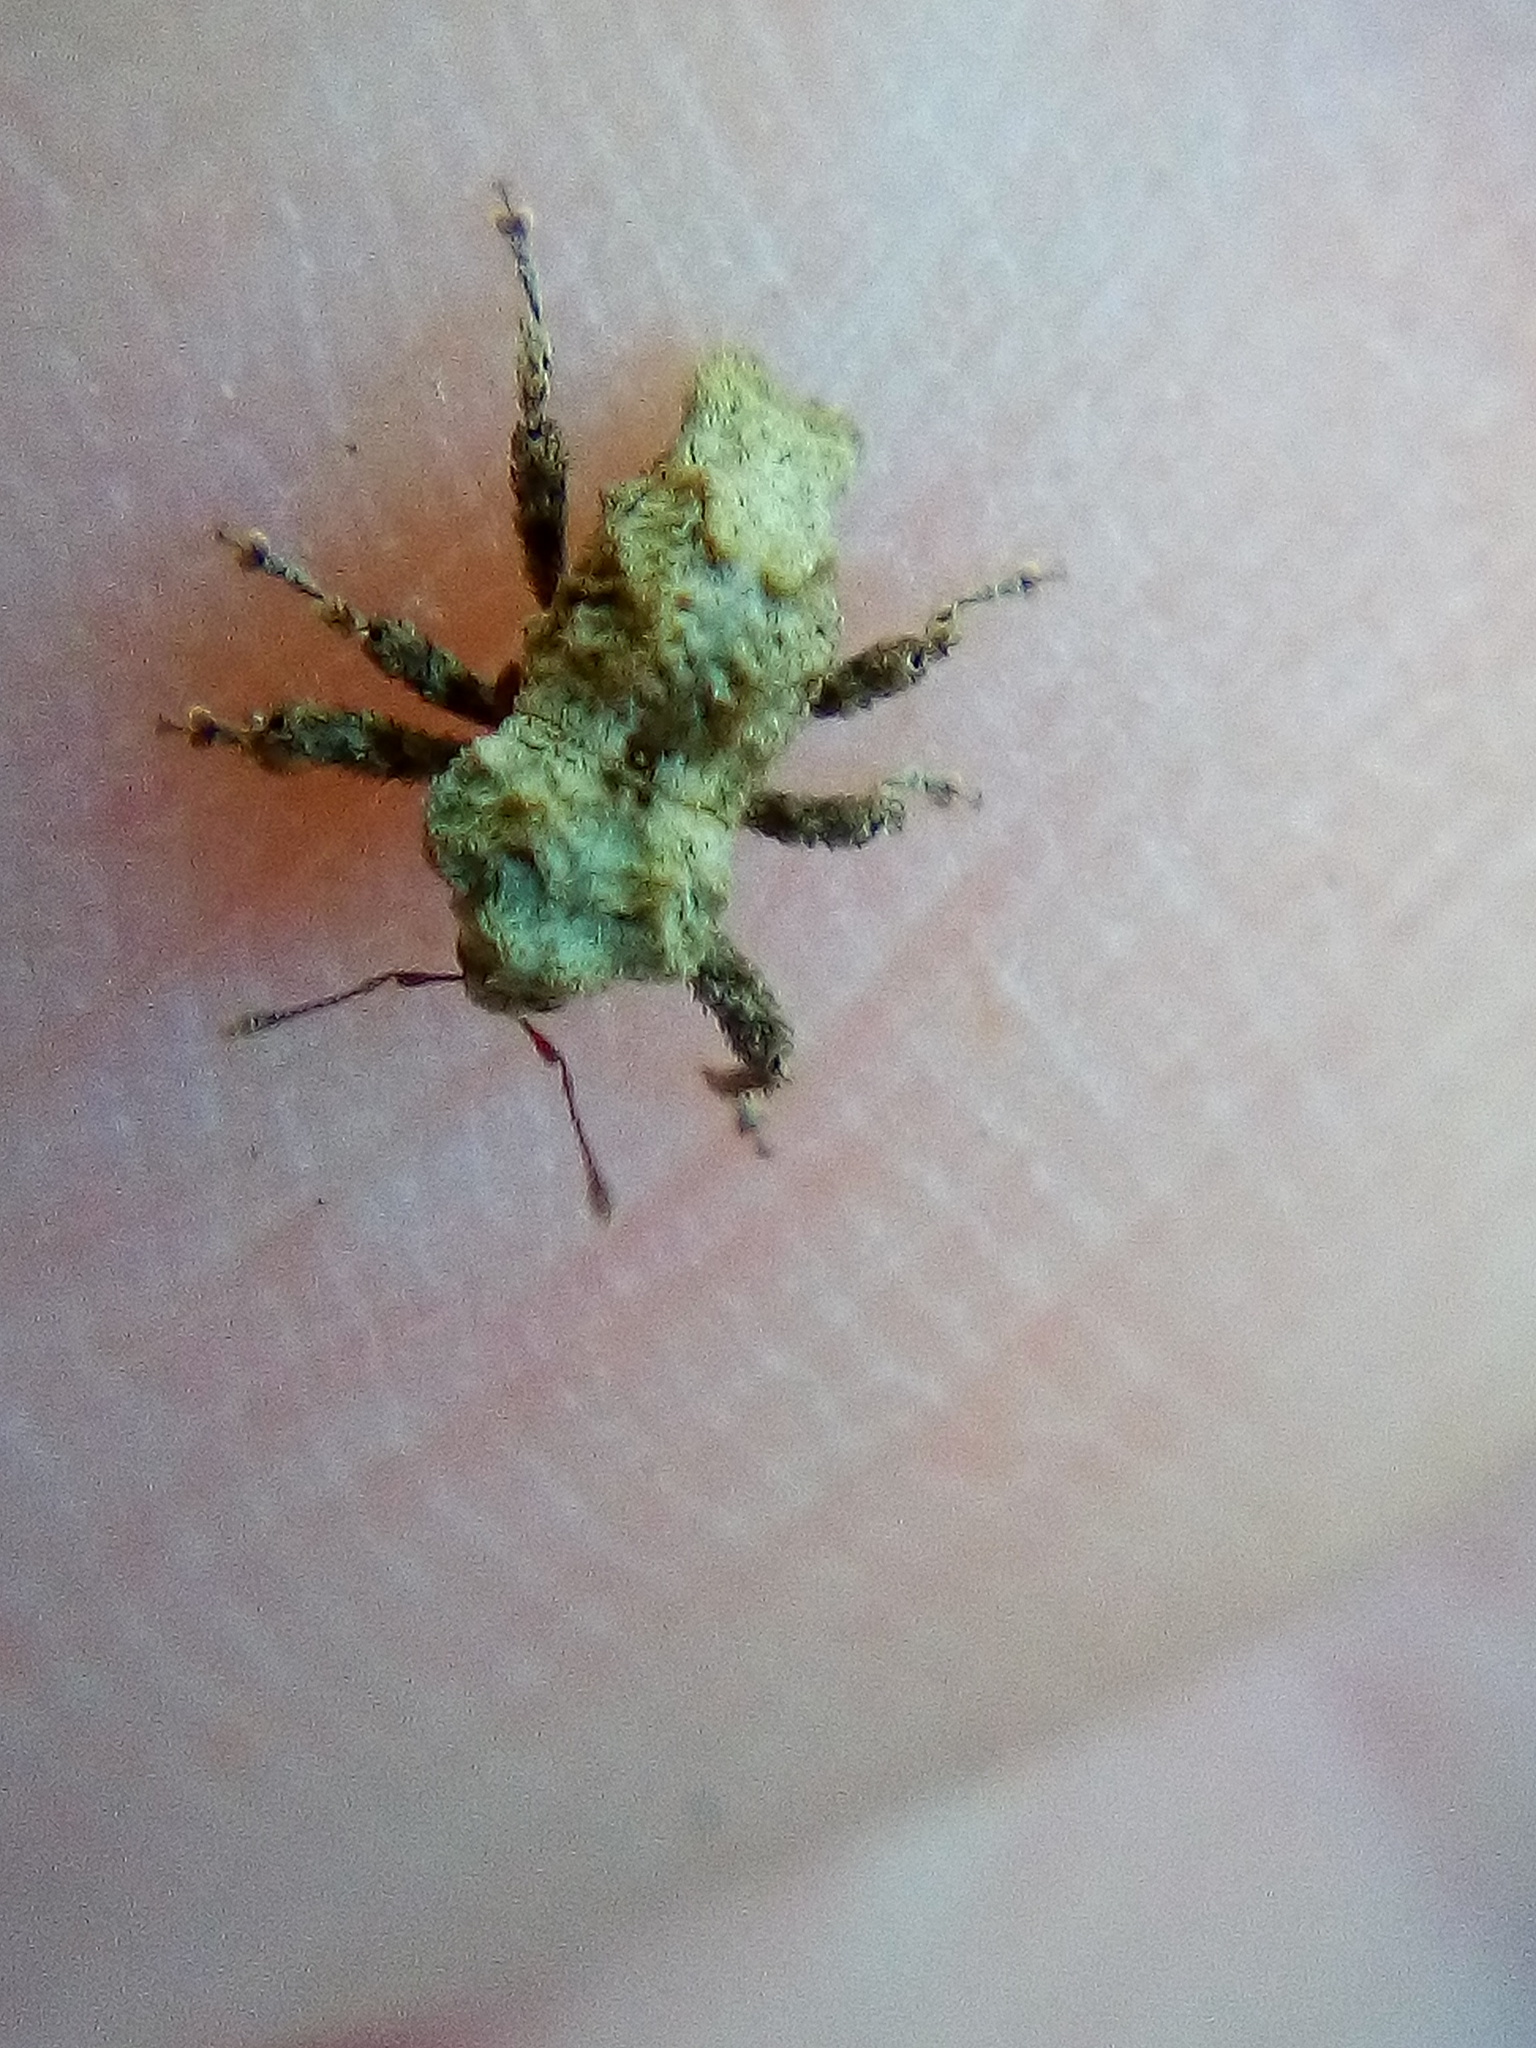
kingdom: Animalia
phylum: Arthropoda
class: Insecta
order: Coleoptera
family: Curculionidae
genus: Indecentia
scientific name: Indecentia nubila
